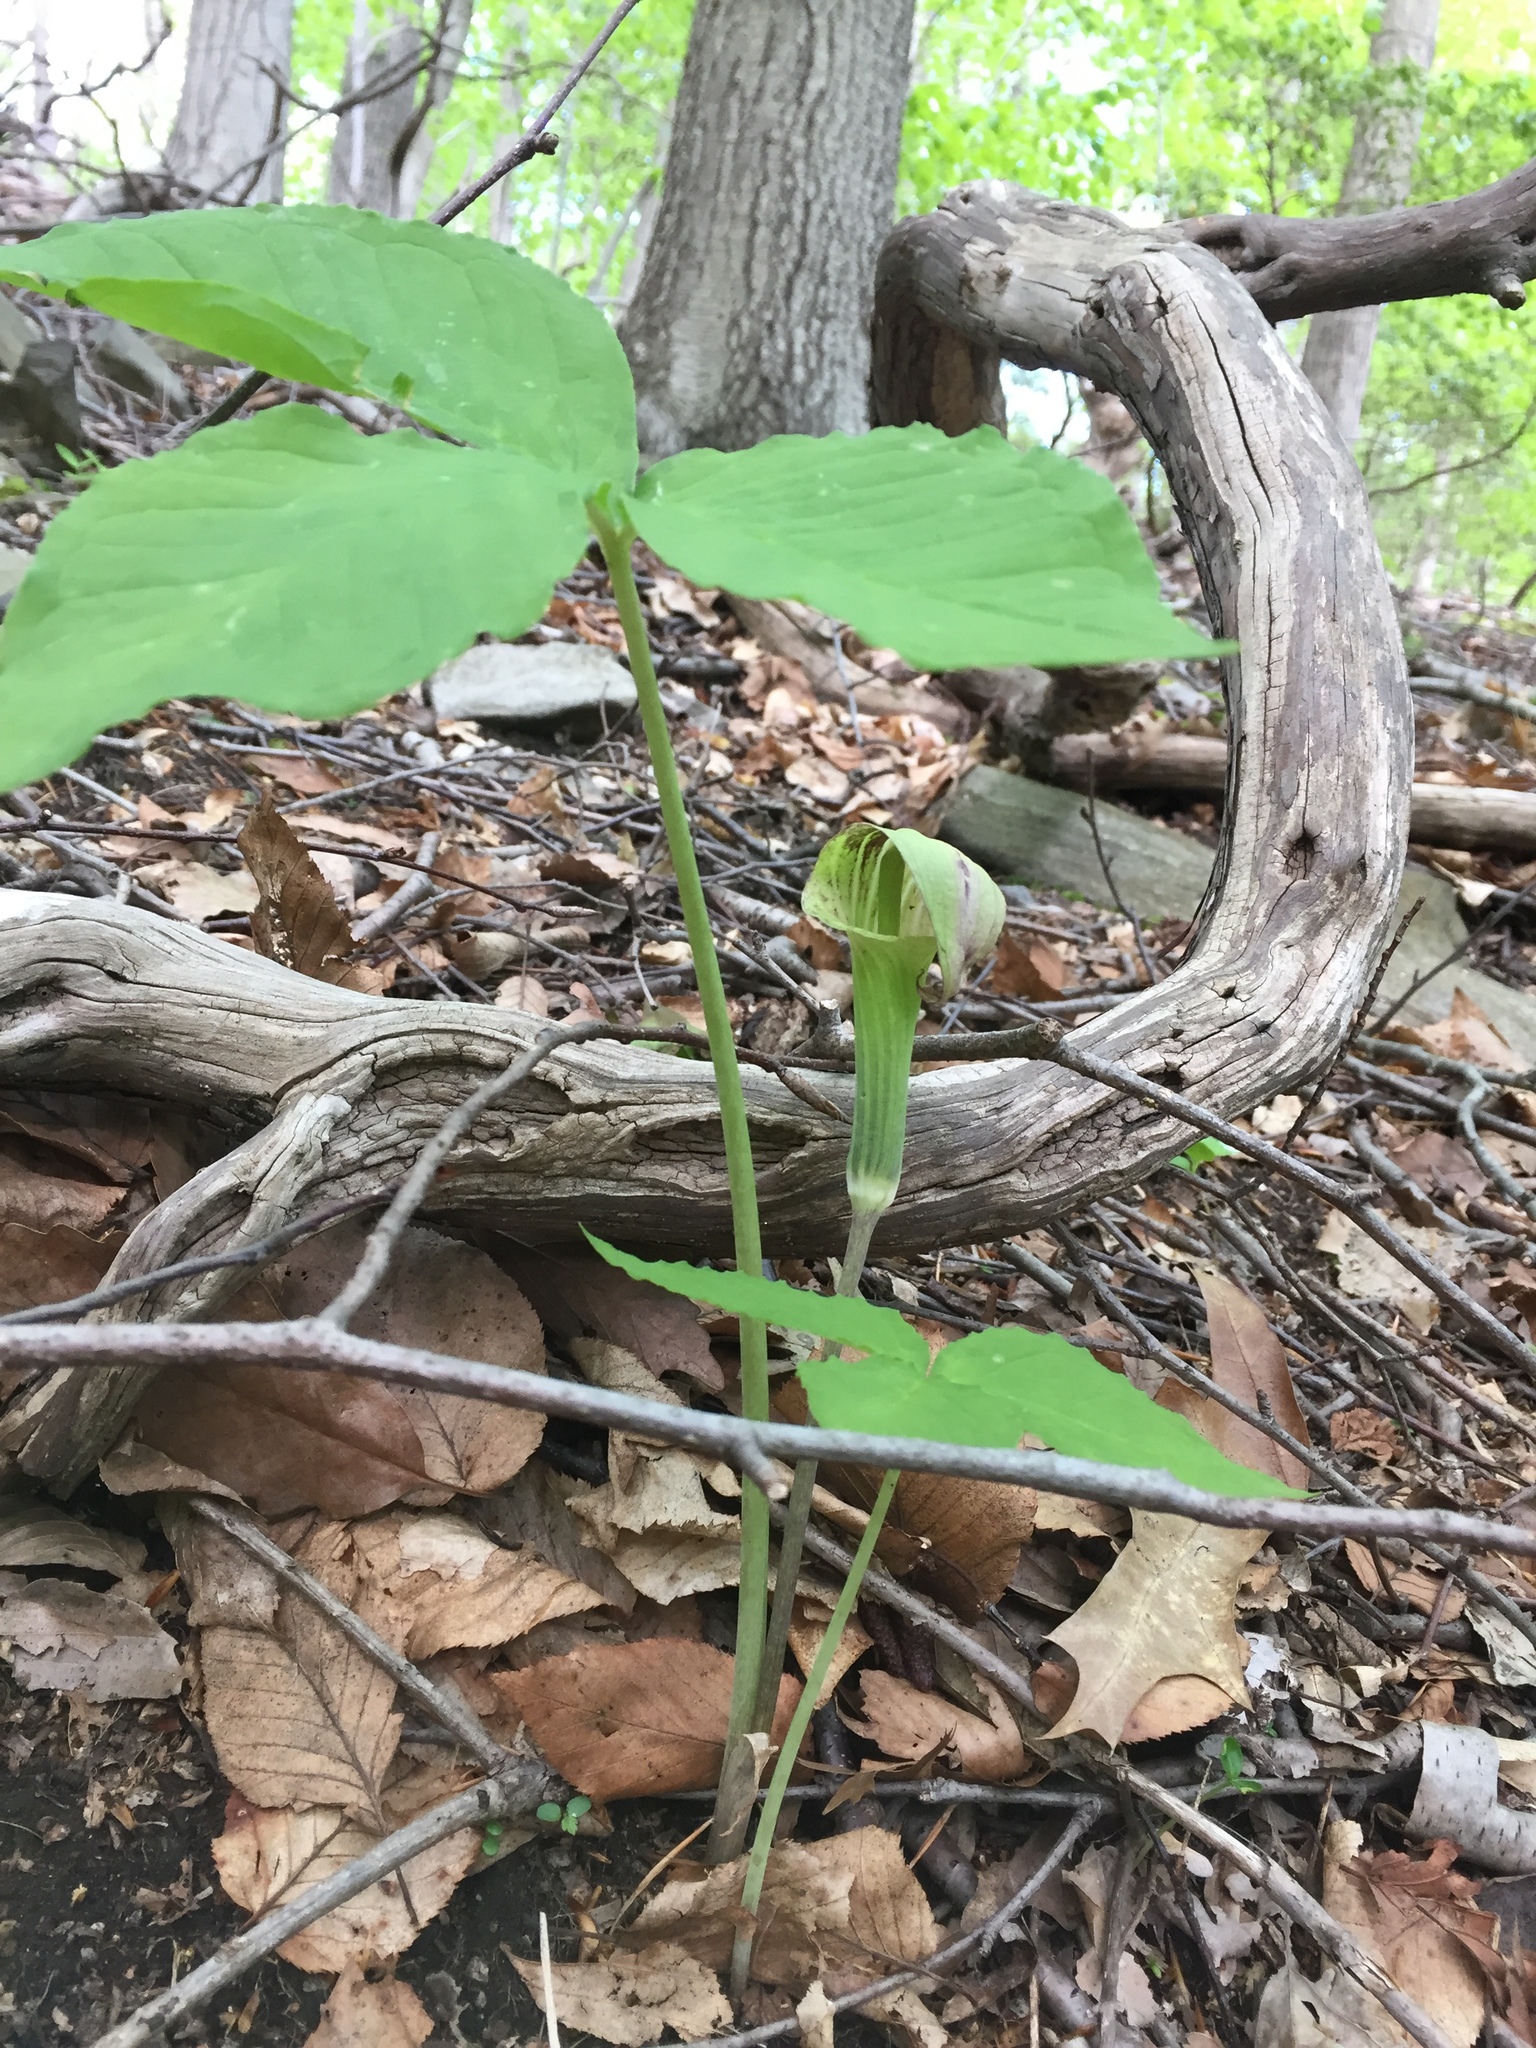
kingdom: Plantae
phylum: Tracheophyta
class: Liliopsida
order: Alismatales
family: Araceae
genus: Arisaema
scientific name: Arisaema triphyllum
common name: Jack-in-the-pulpit
